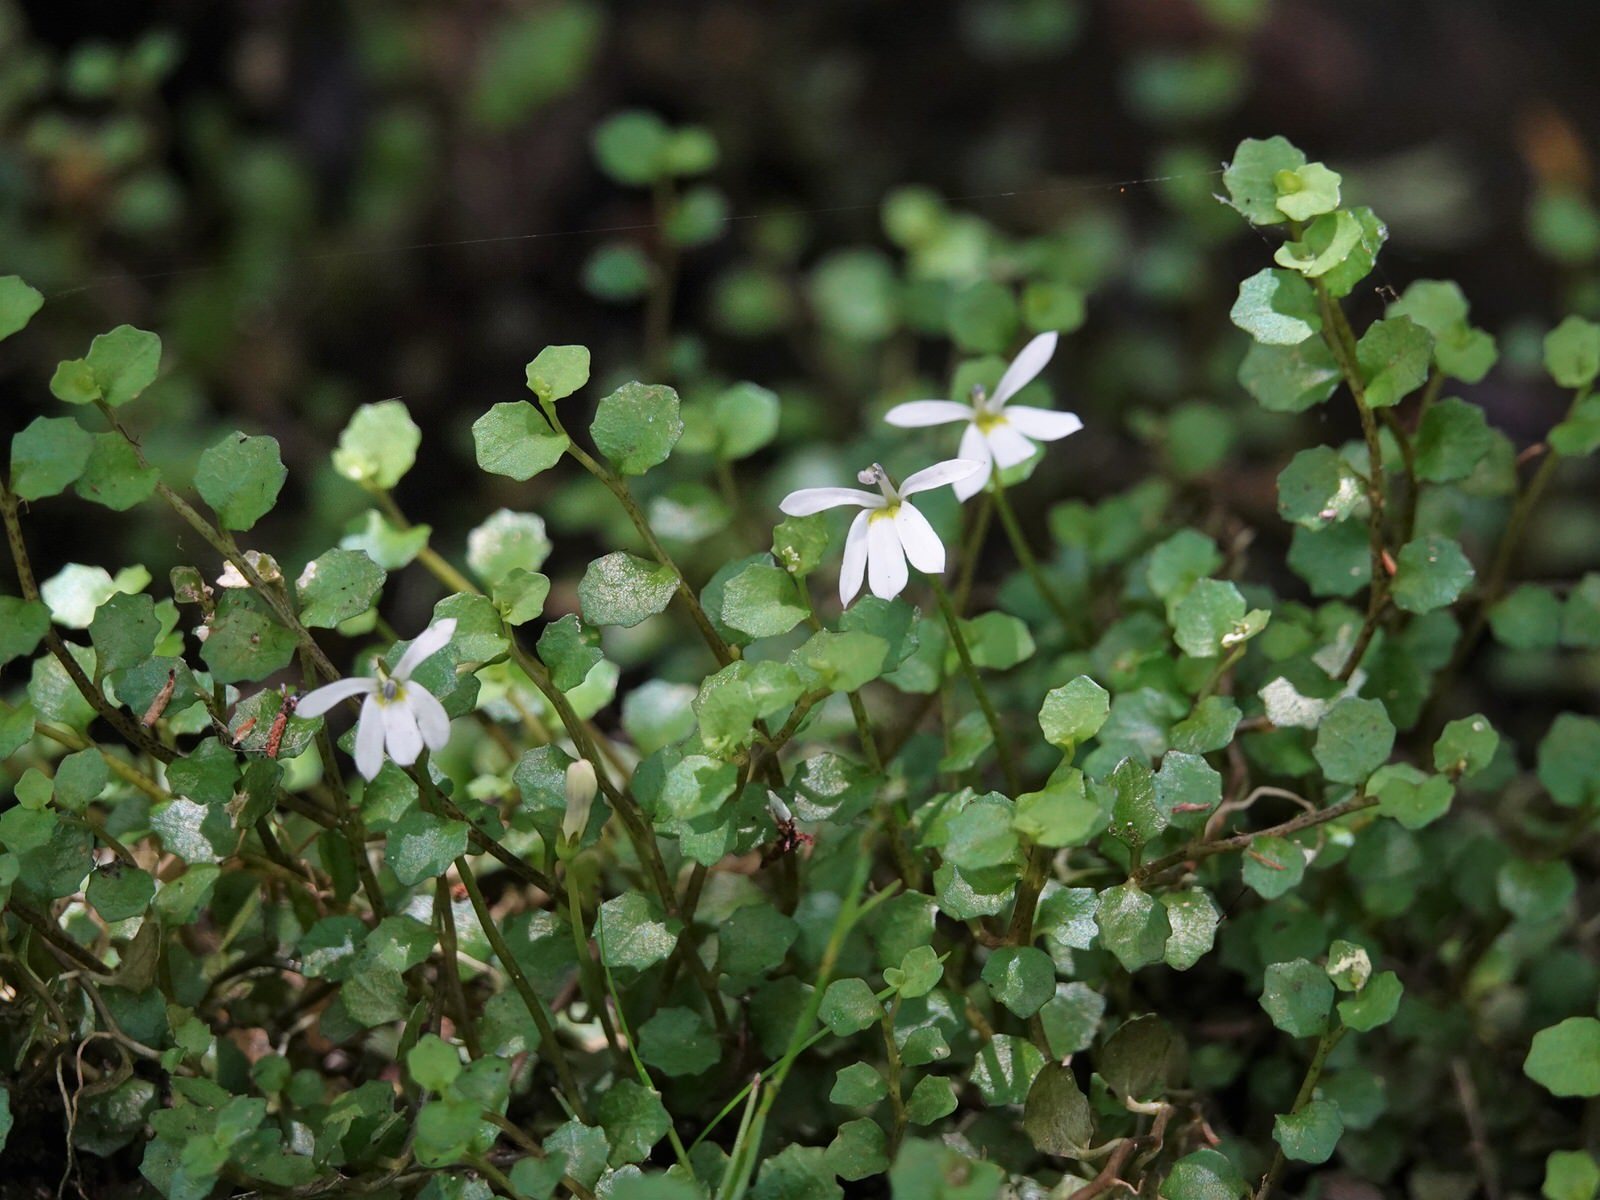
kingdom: Plantae
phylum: Tracheophyta
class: Magnoliopsida
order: Asterales
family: Campanulaceae
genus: Lobelia
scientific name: Lobelia angulata
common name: Lawn lobelia
